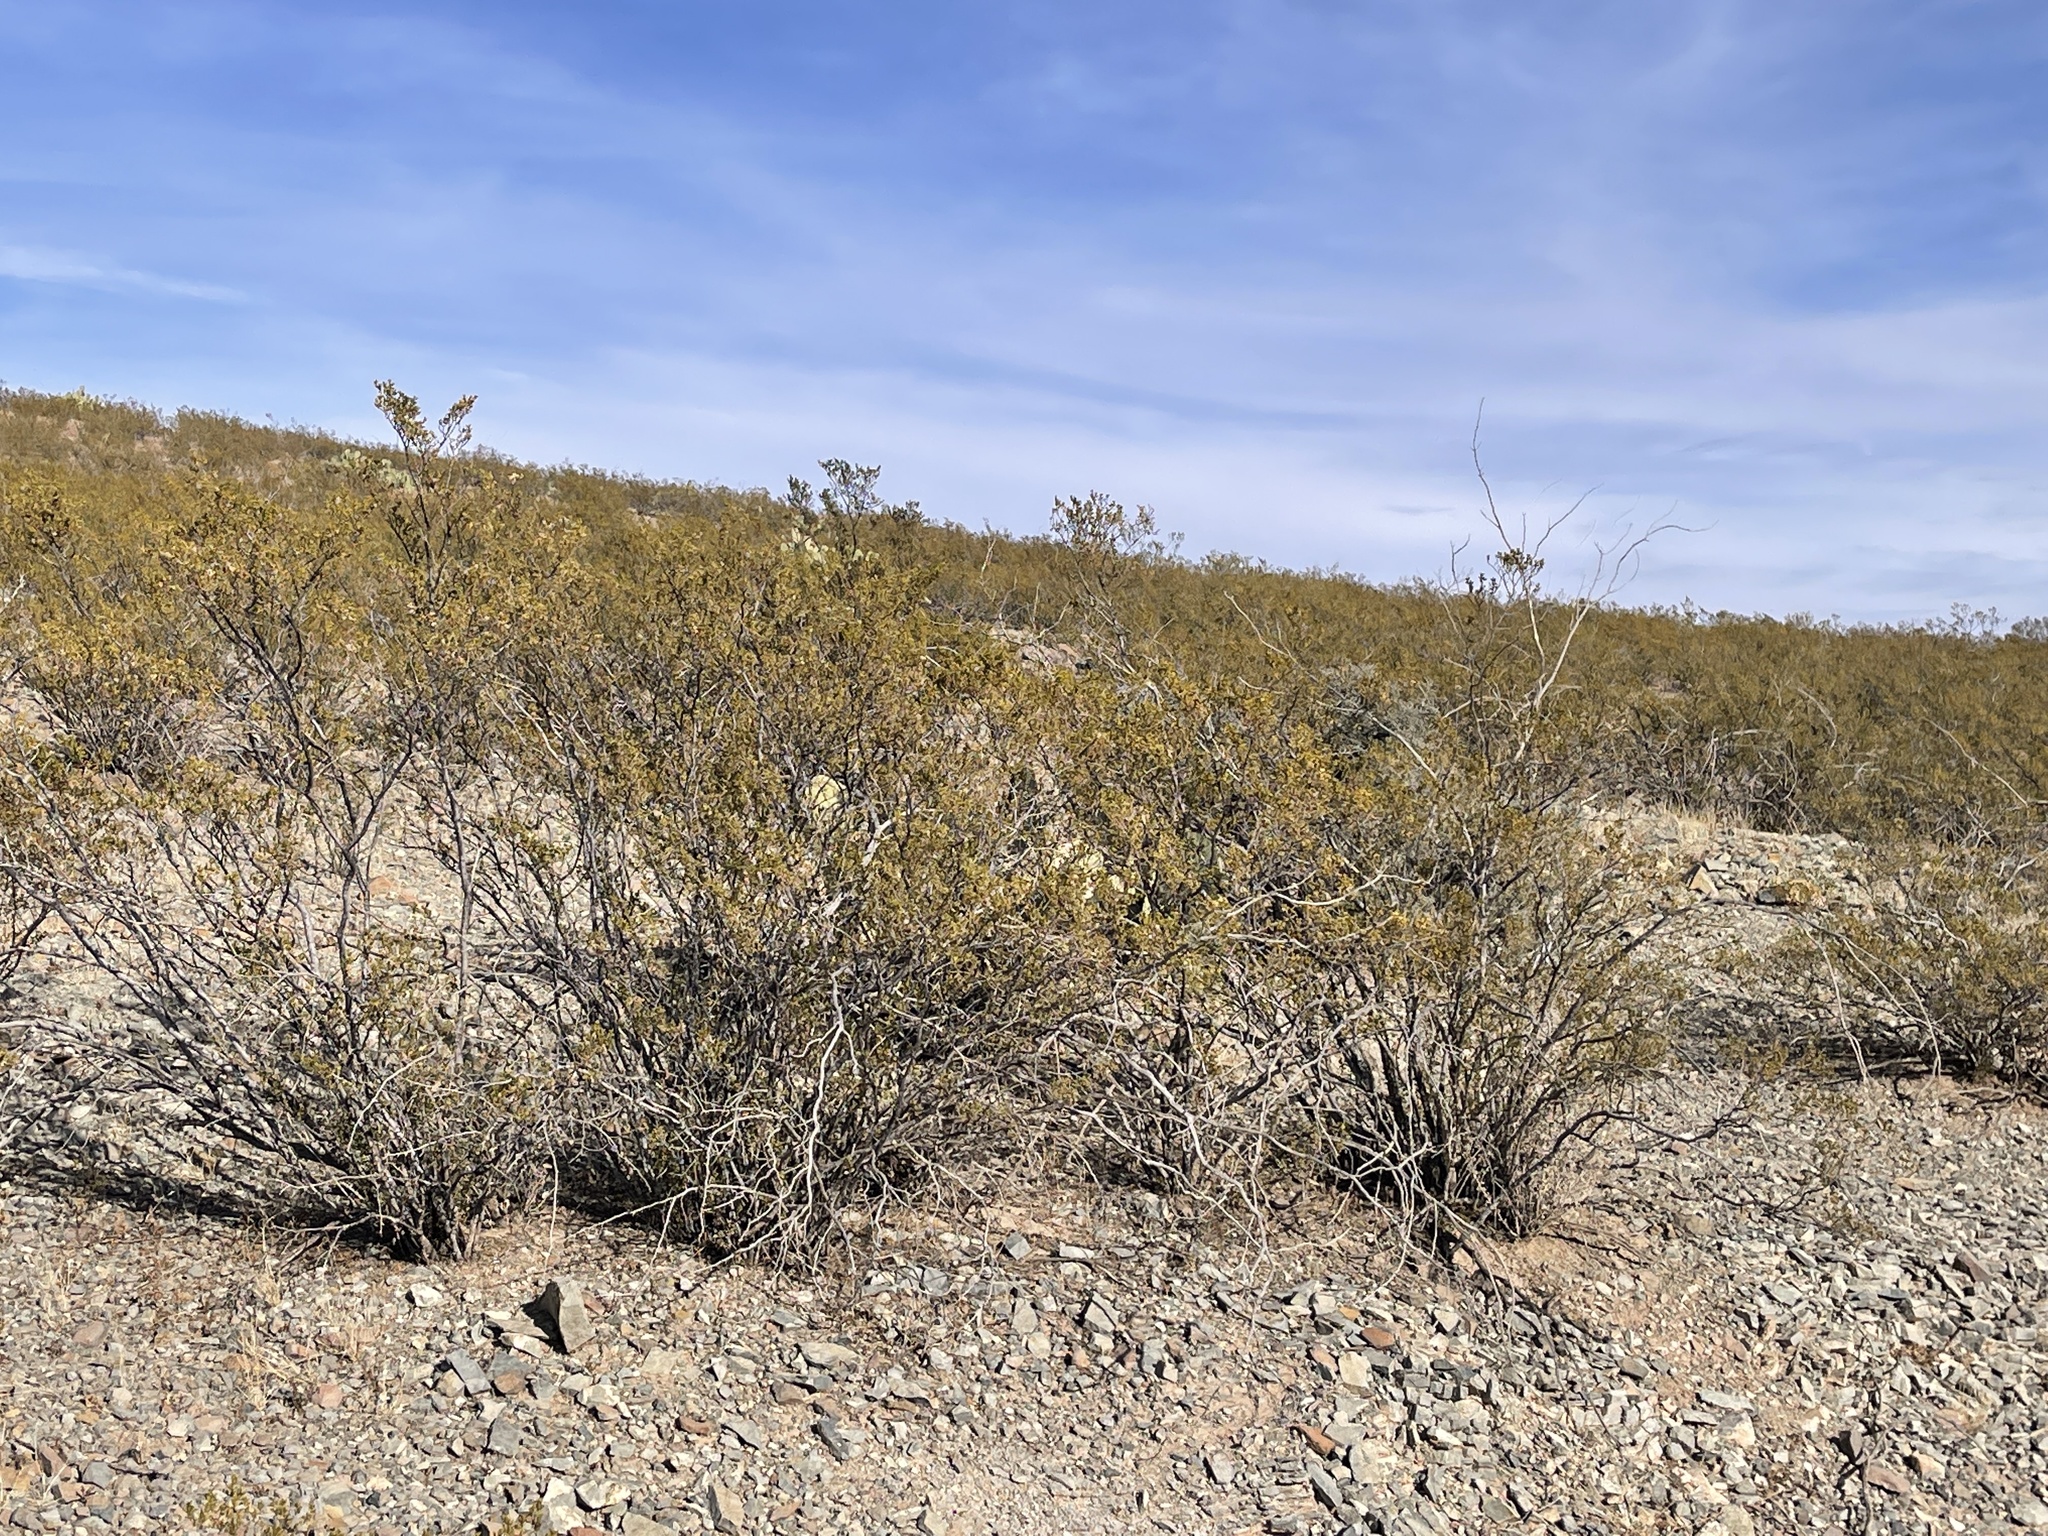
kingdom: Plantae
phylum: Tracheophyta
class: Magnoliopsida
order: Zygophyllales
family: Zygophyllaceae
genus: Larrea
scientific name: Larrea tridentata
